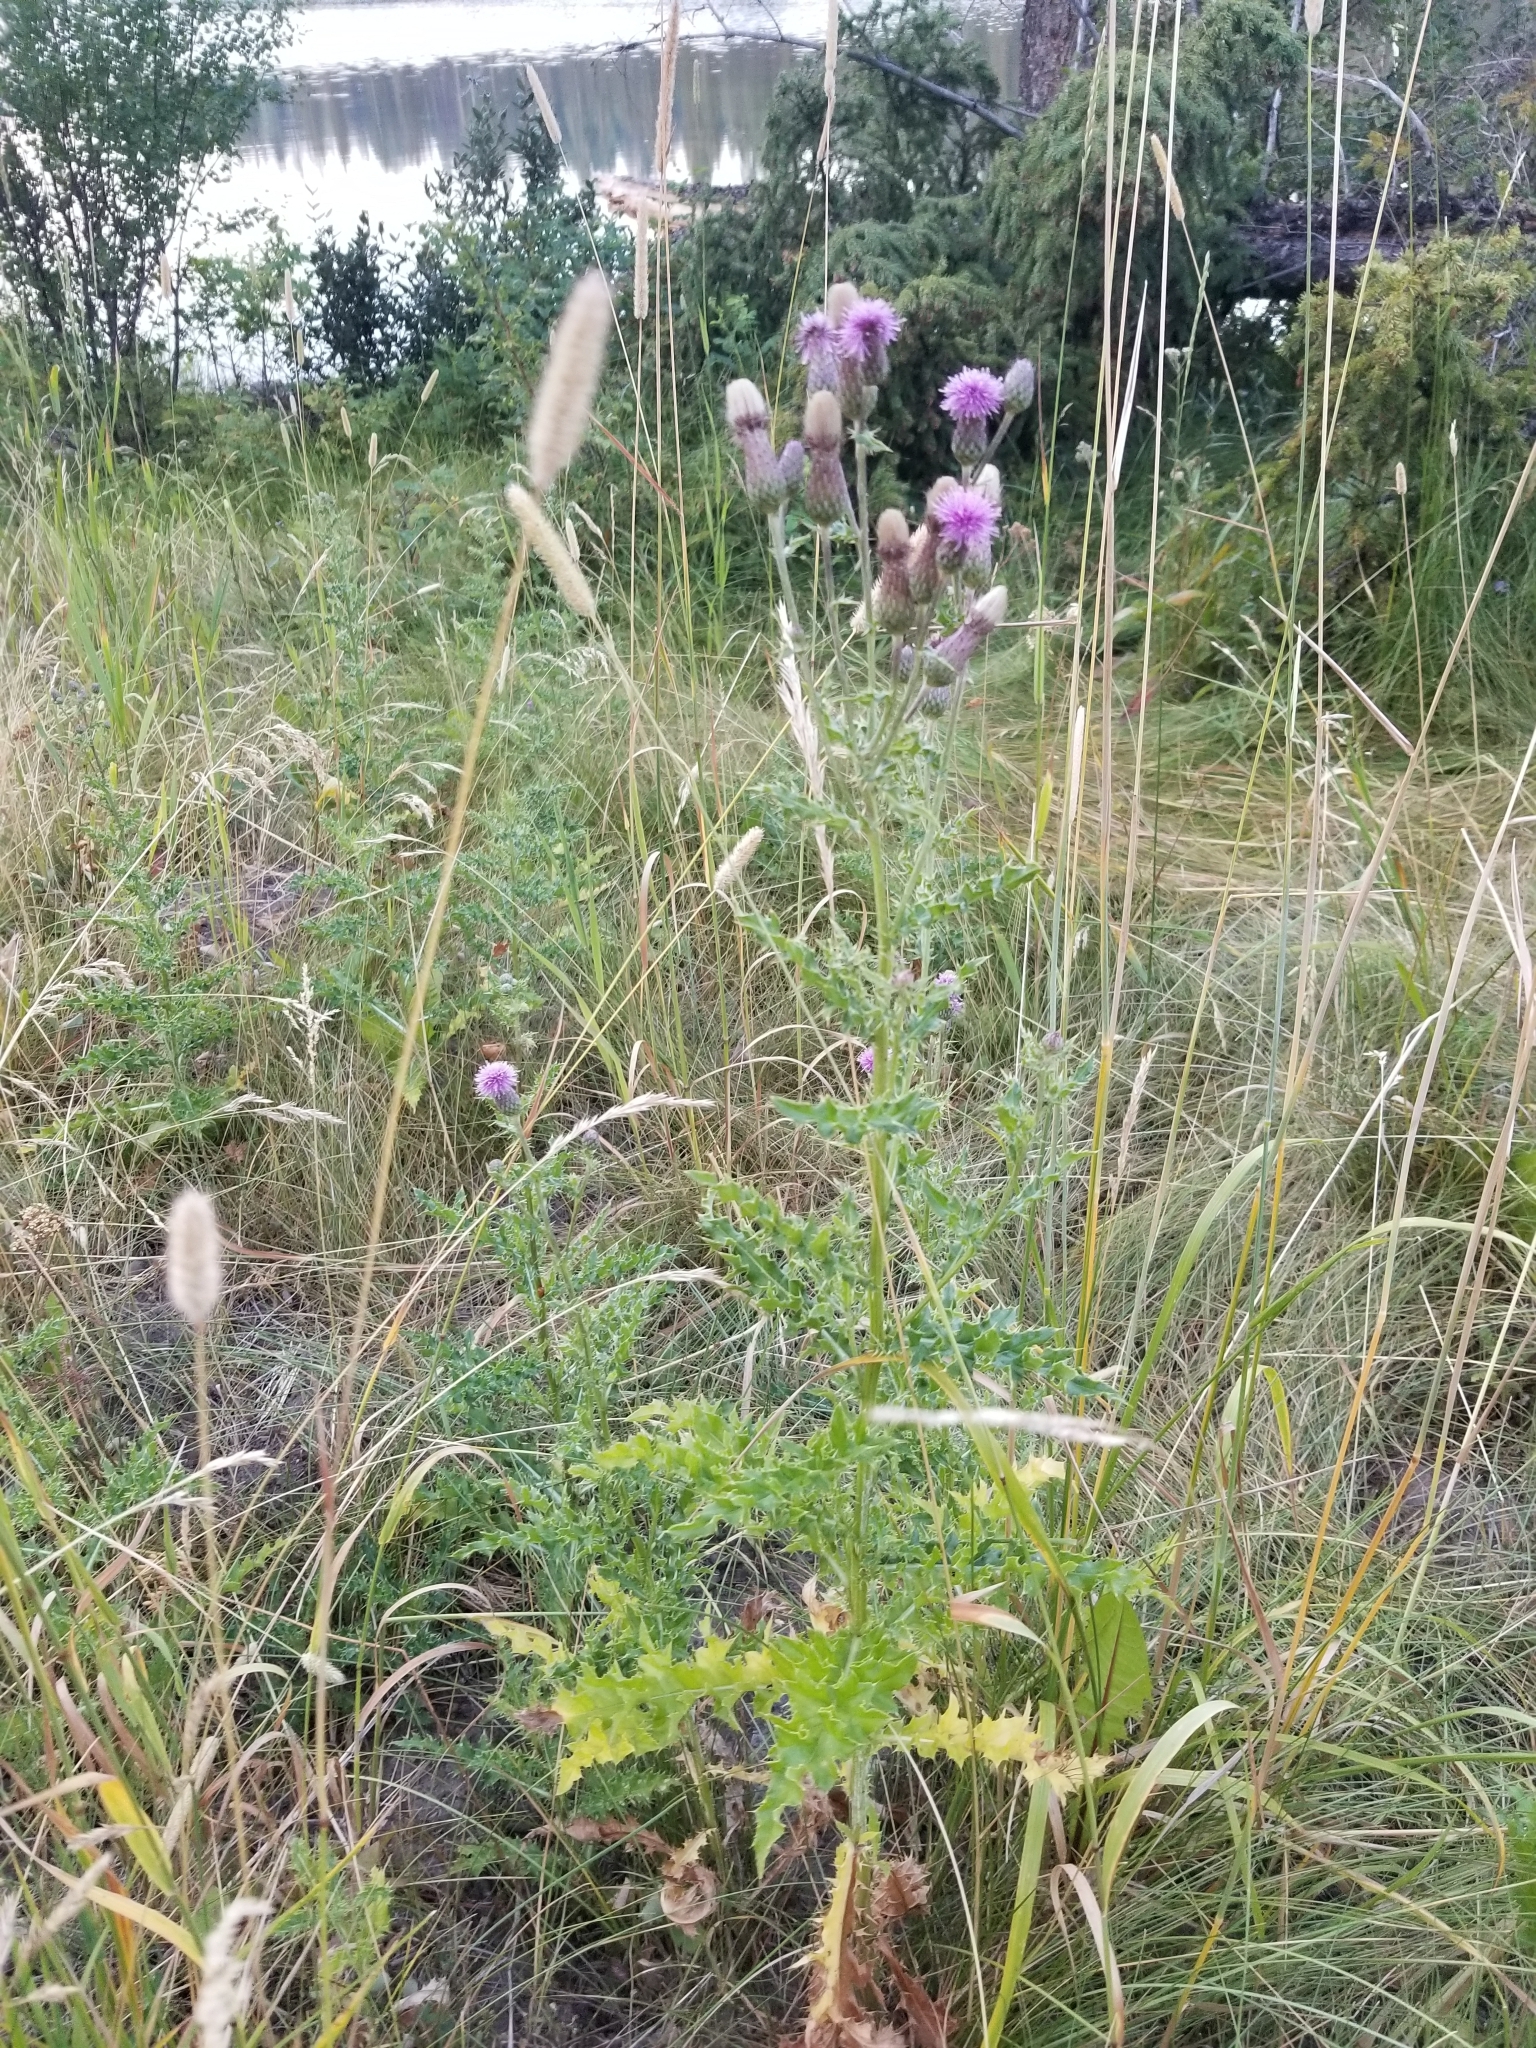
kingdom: Plantae
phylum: Tracheophyta
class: Magnoliopsida
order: Asterales
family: Asteraceae
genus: Cirsium
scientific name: Cirsium arvense
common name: Creeping thistle
